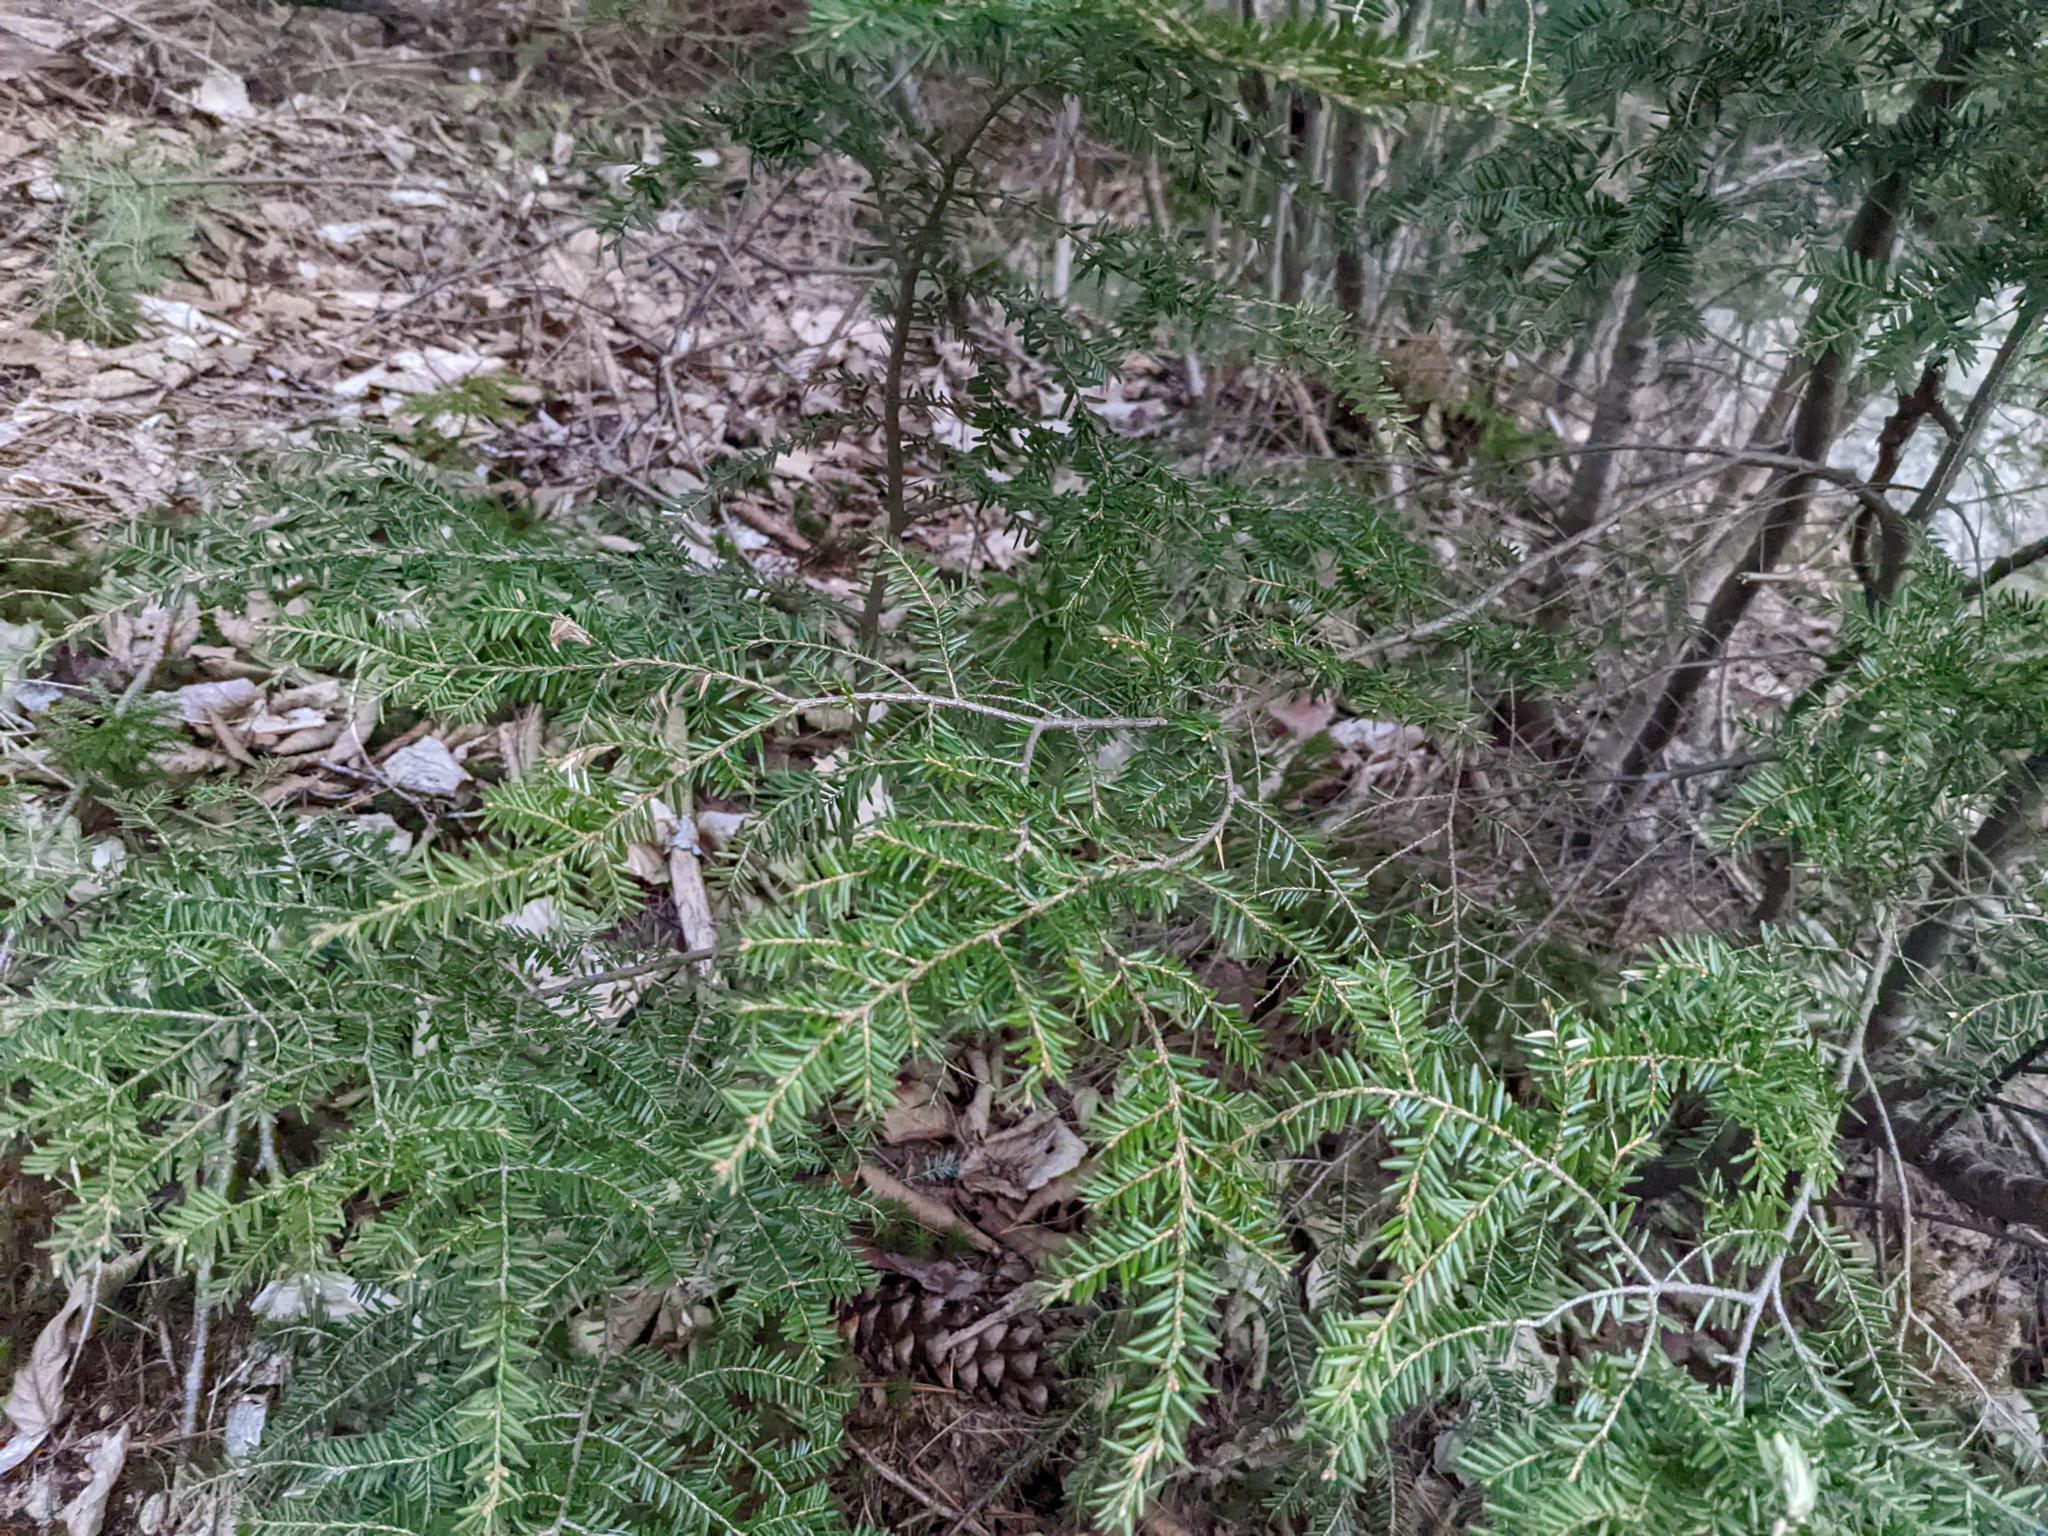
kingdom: Plantae
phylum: Tracheophyta
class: Pinopsida
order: Pinales
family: Pinaceae
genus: Tsuga
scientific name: Tsuga canadensis
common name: Eastern hemlock
